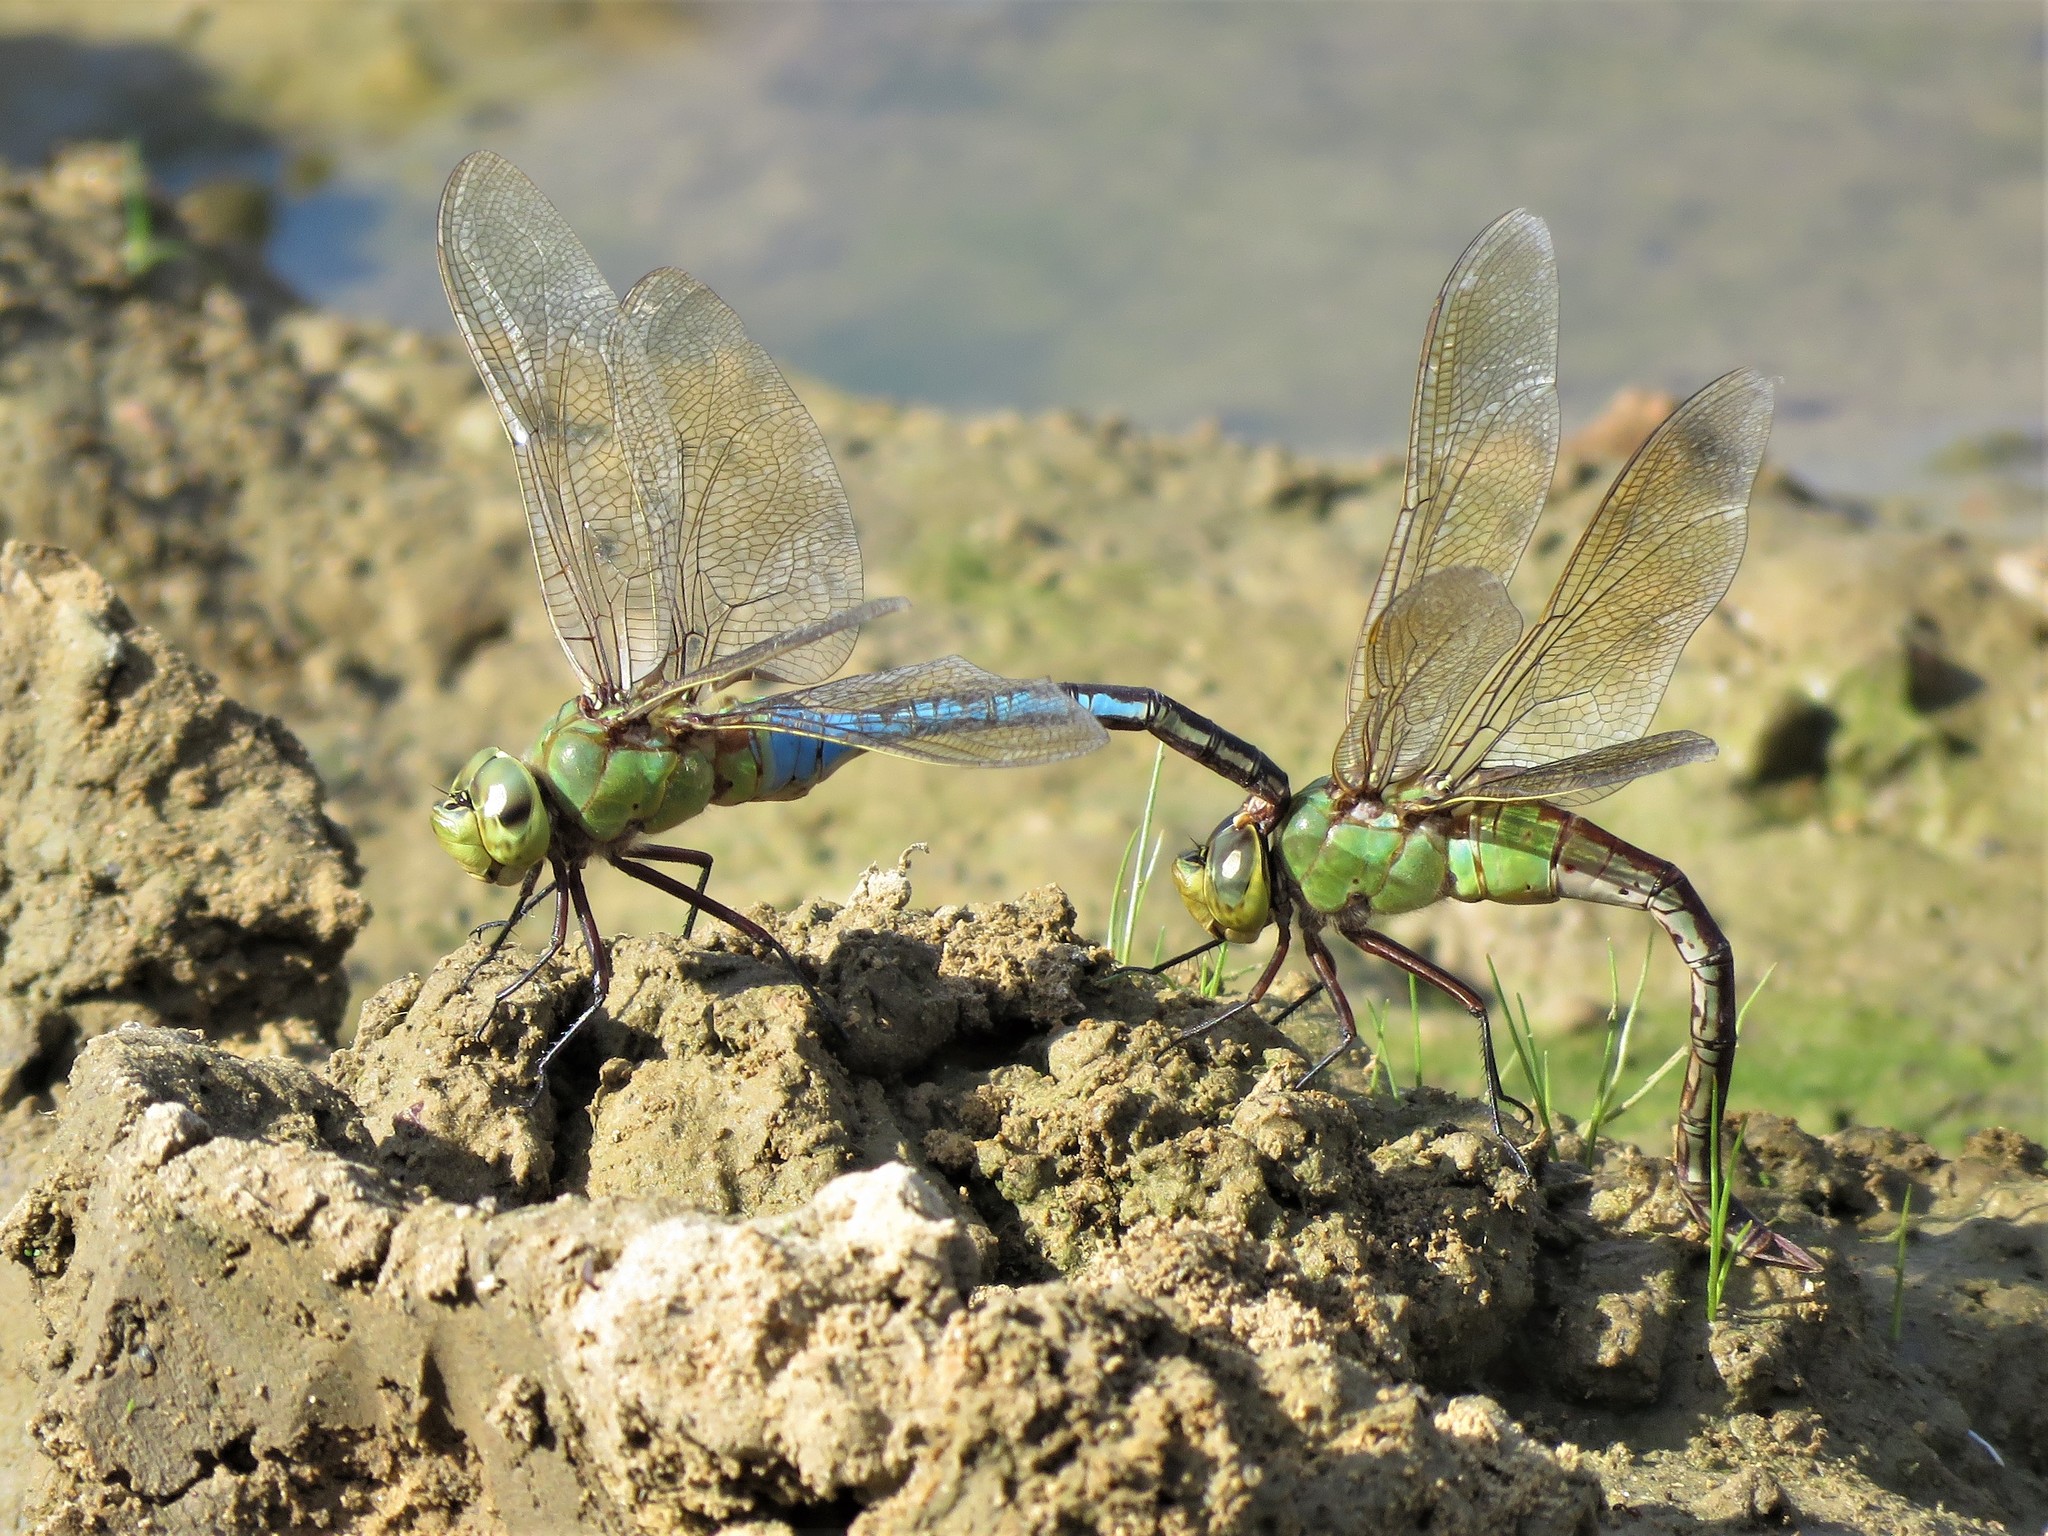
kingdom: Animalia
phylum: Arthropoda
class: Insecta
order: Odonata
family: Aeshnidae
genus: Anax
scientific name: Anax junius
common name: Common green darner
